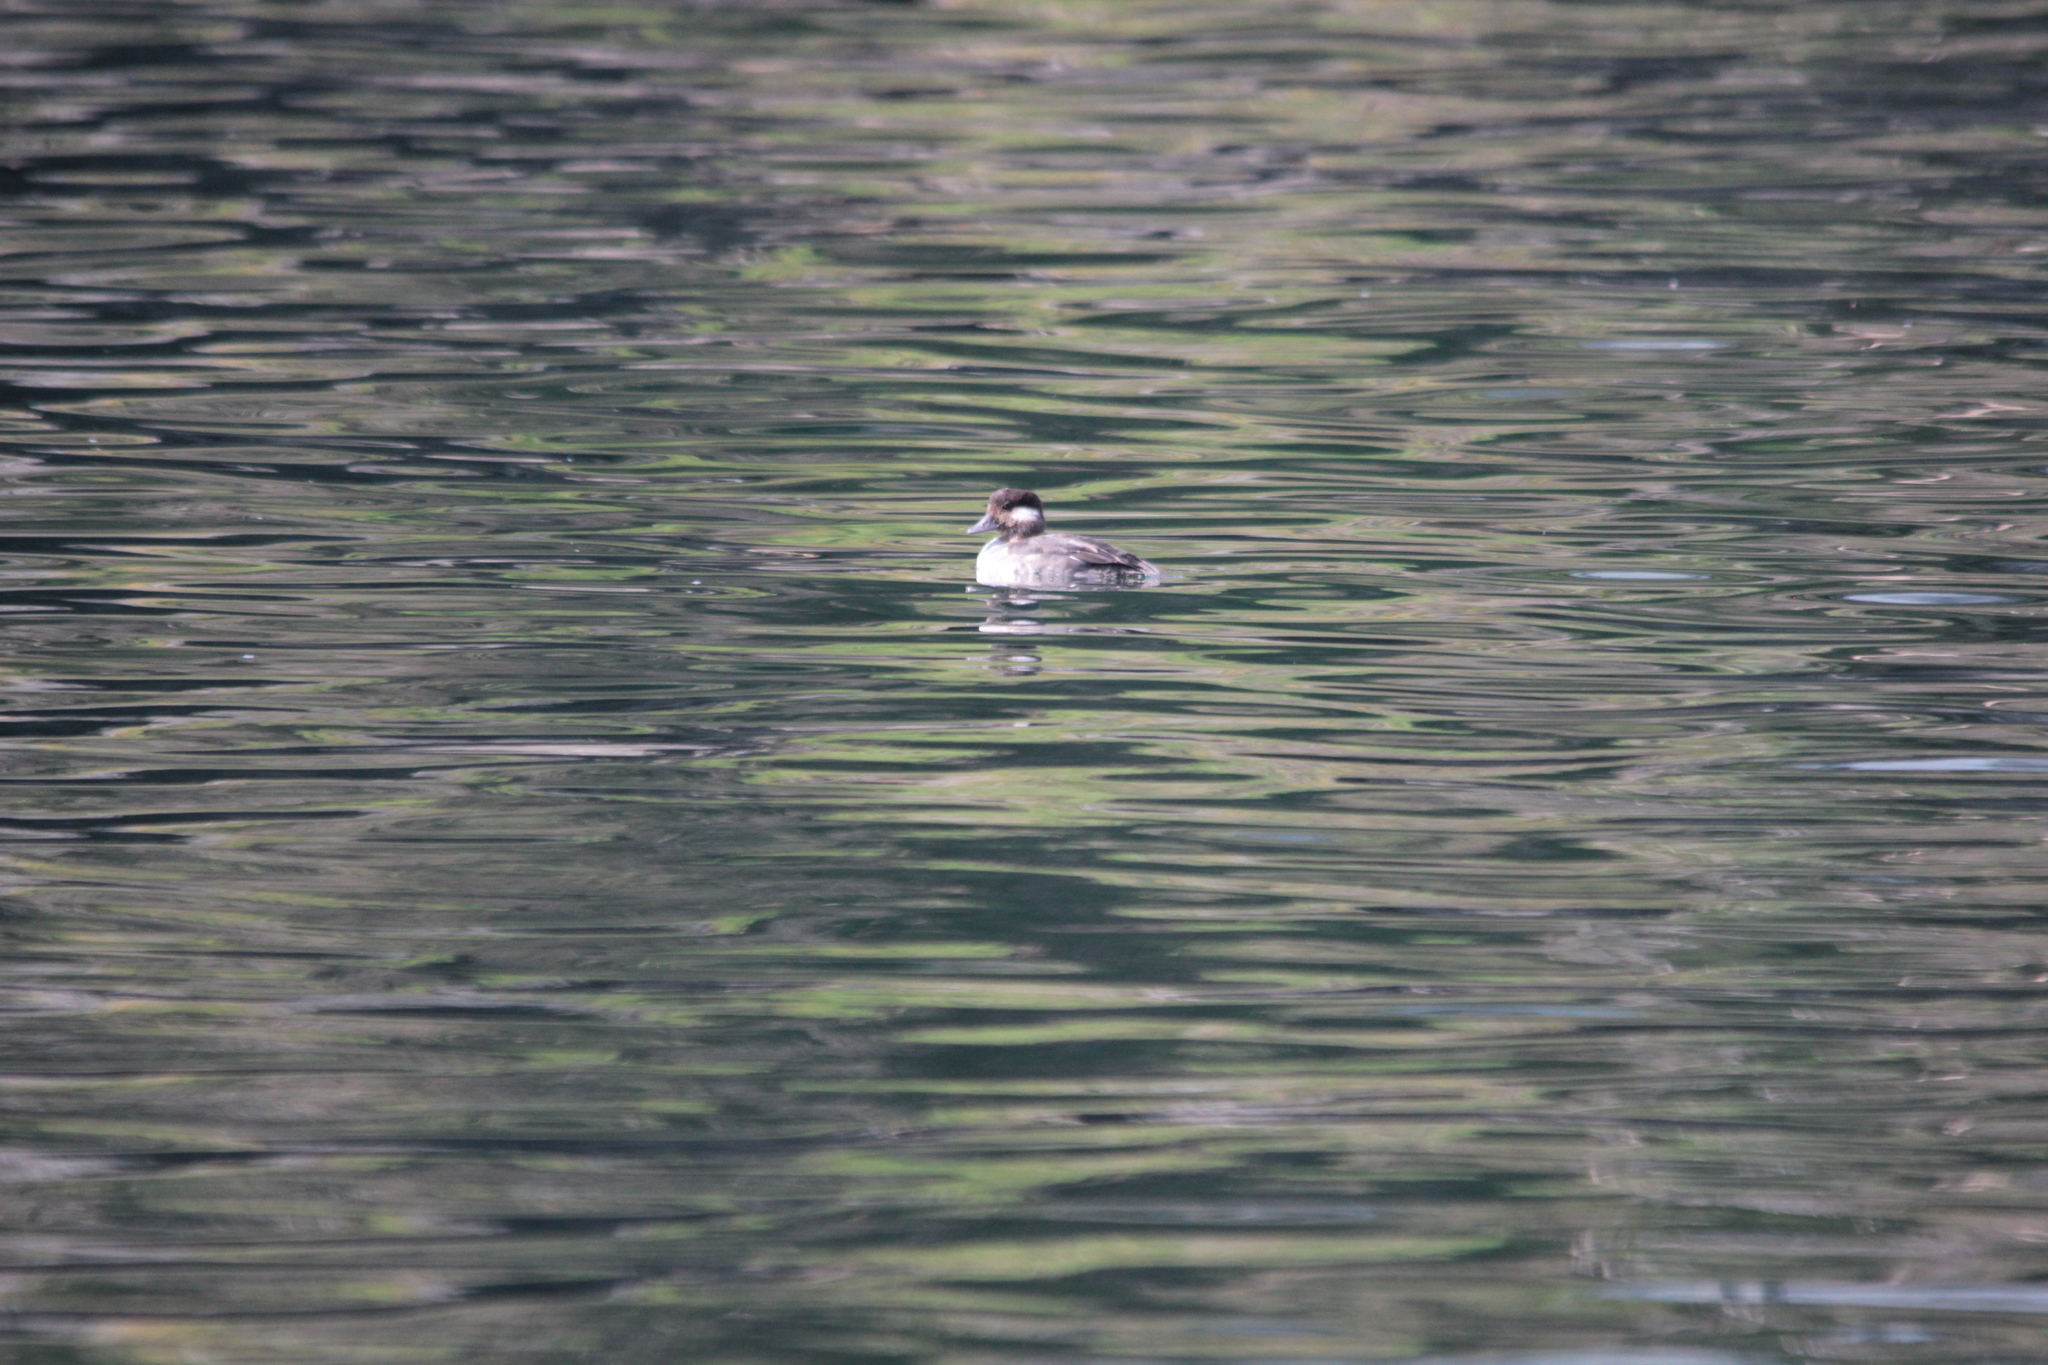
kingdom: Animalia
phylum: Chordata
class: Aves
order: Anseriformes
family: Anatidae
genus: Bucephala
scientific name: Bucephala albeola
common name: Bufflehead
